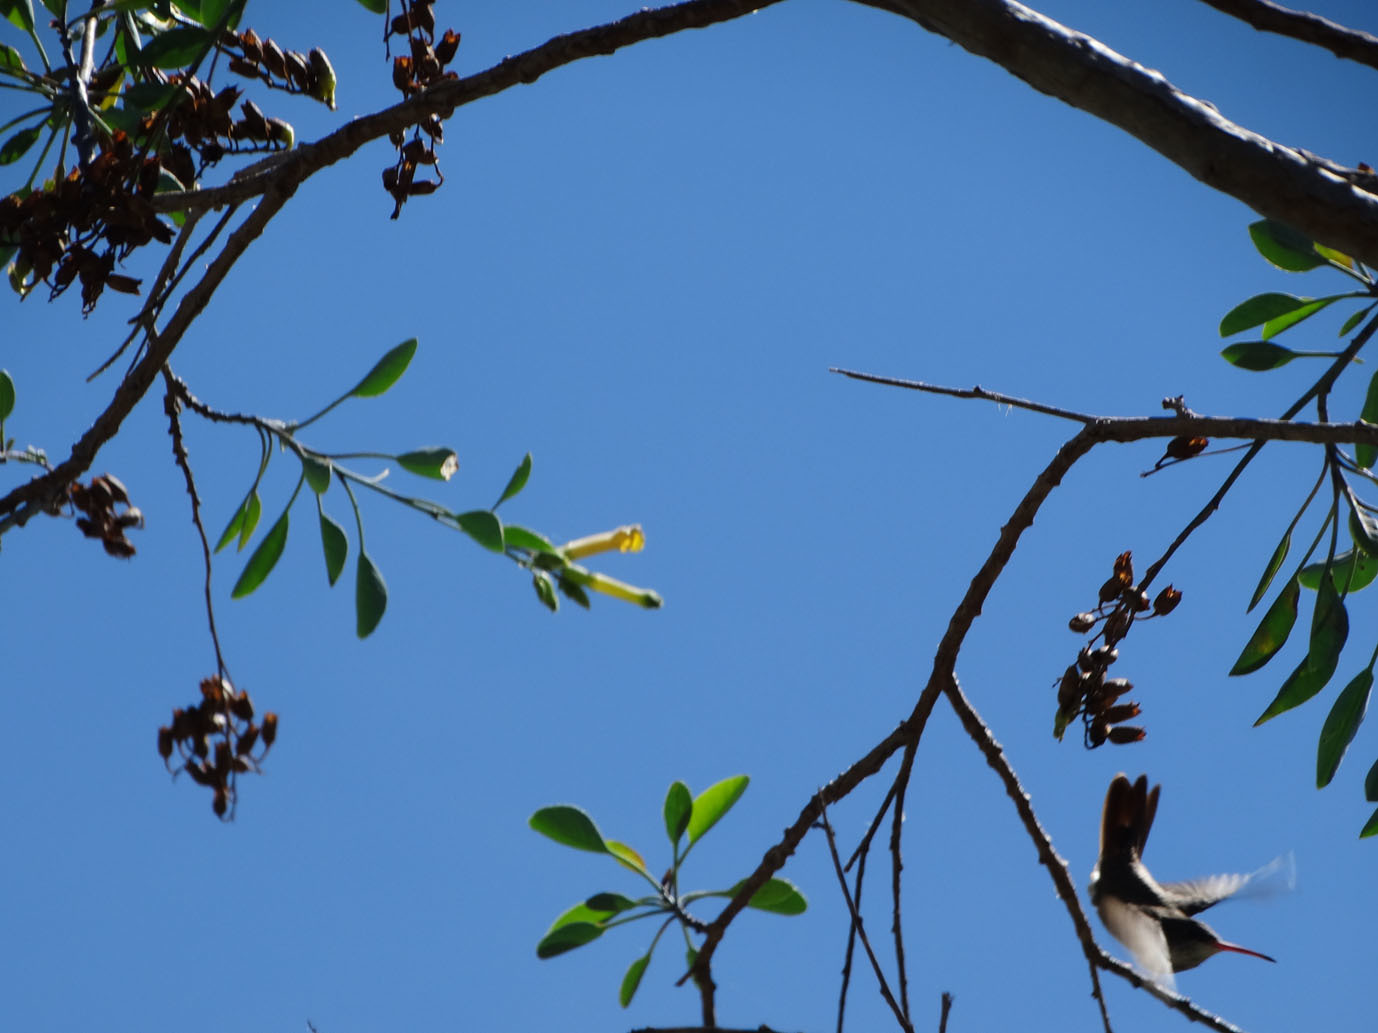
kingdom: Animalia
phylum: Chordata
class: Aves
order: Apodiformes
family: Trochilidae
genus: Leucolia
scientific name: Leucolia violiceps
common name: Violet-crowned hummingbird
